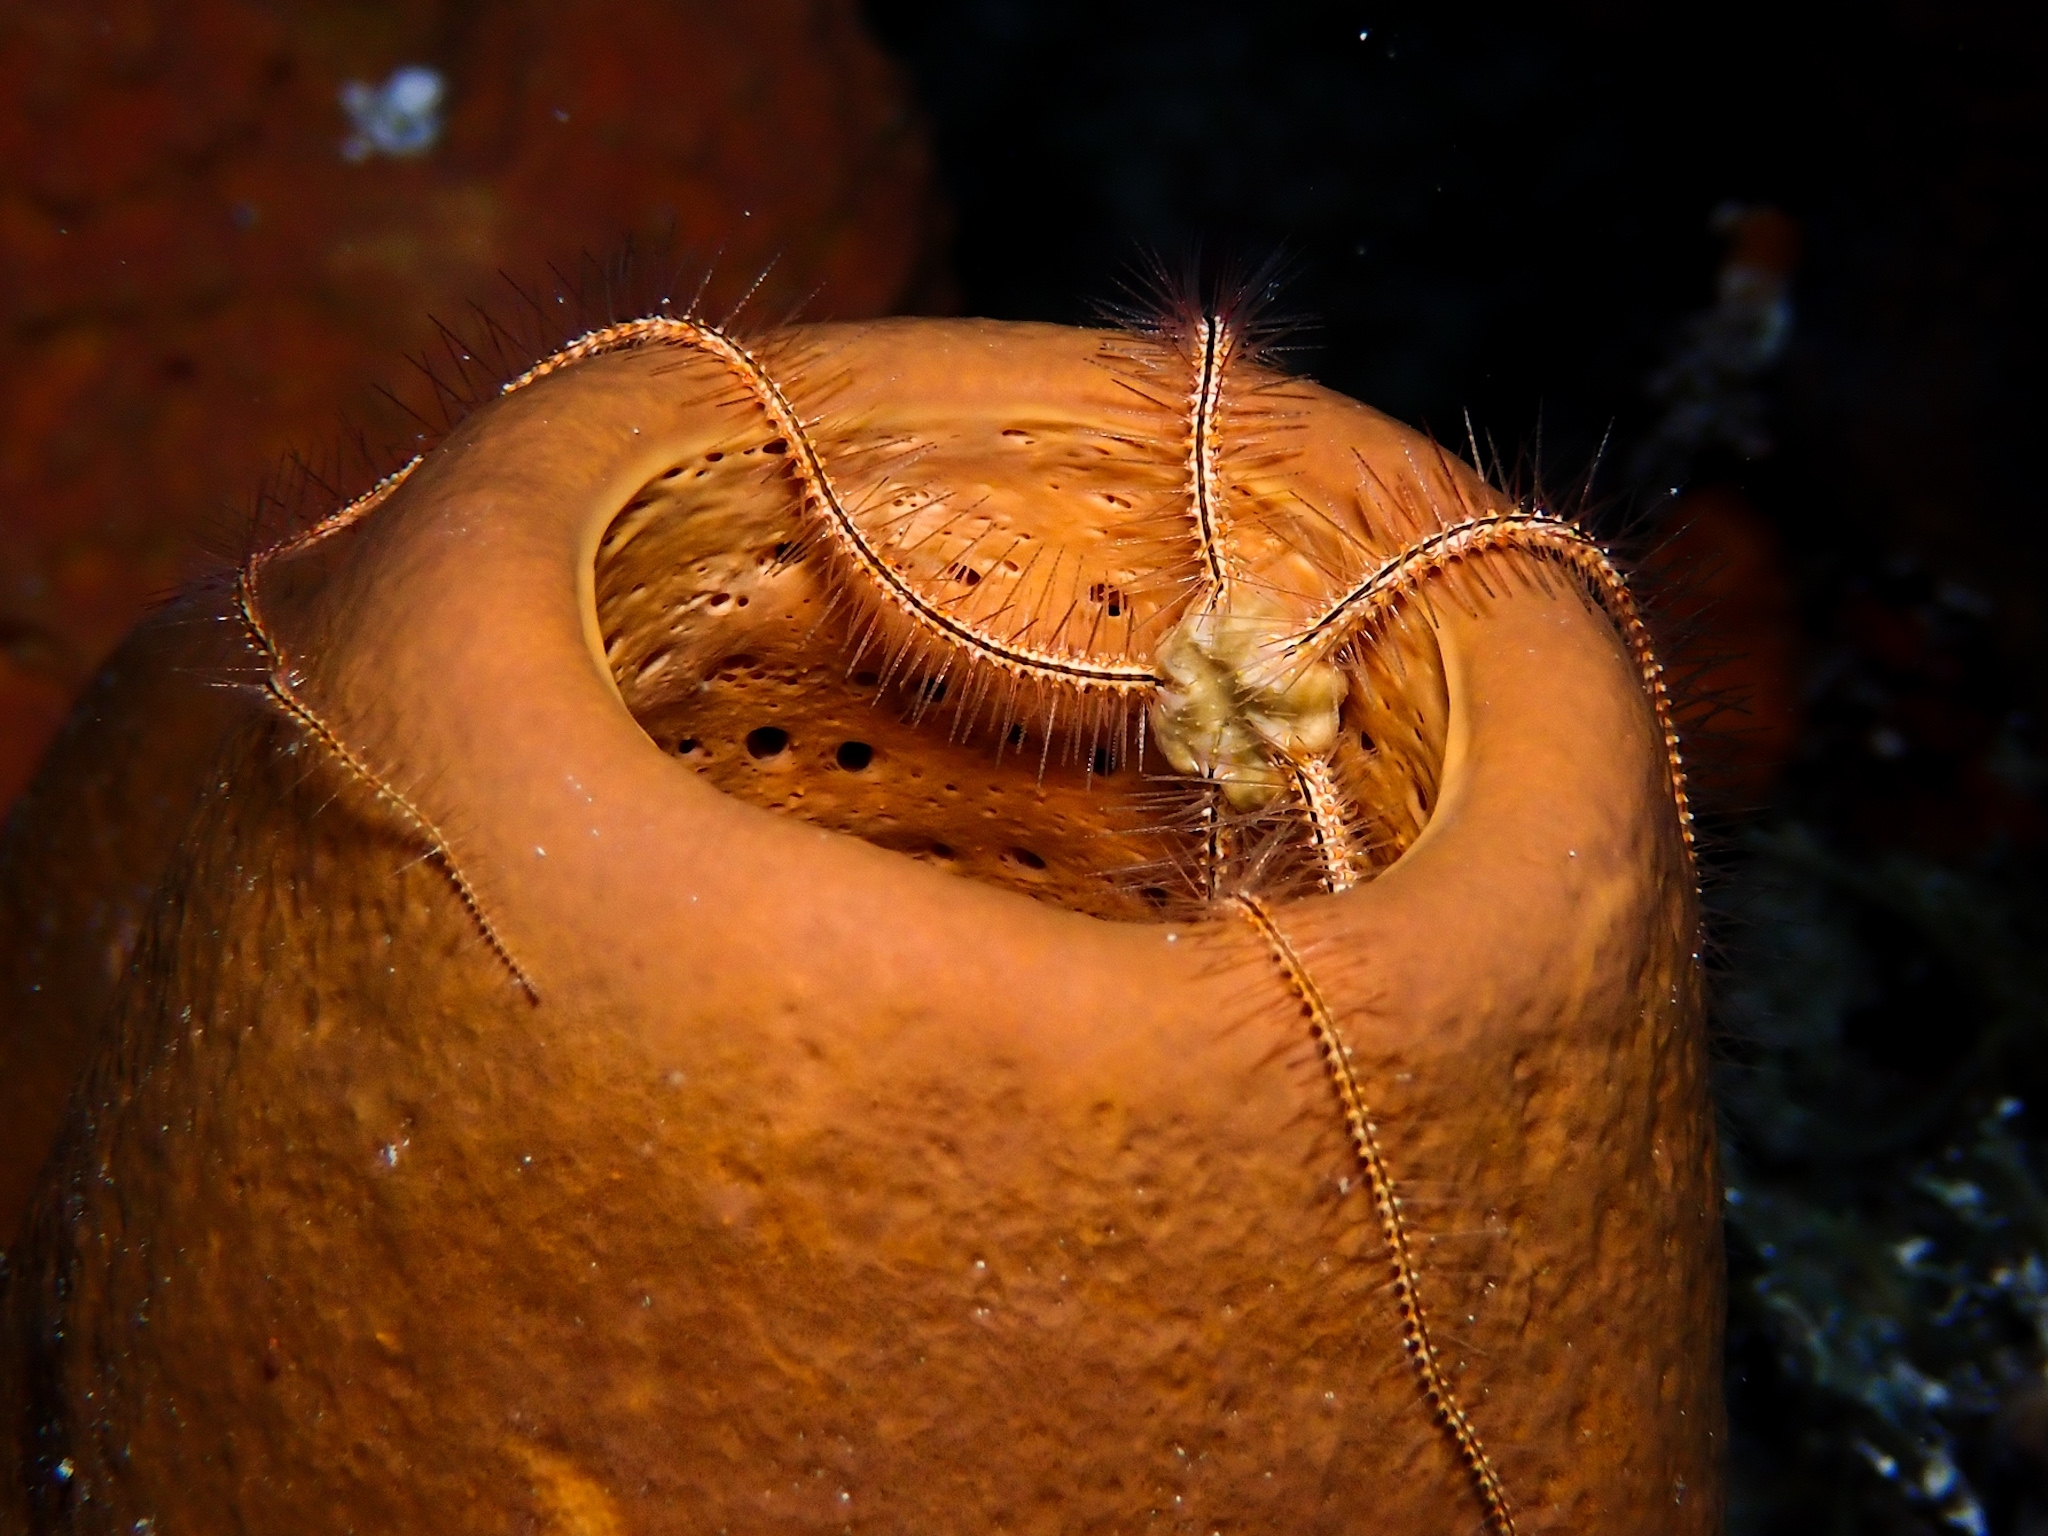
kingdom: Animalia
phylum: Echinodermata
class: Ophiuroidea
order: Amphilepidida
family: Ophiotrichidae
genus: Ophiothrix
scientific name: Ophiothrix suensonii
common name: Sponge brittle star
